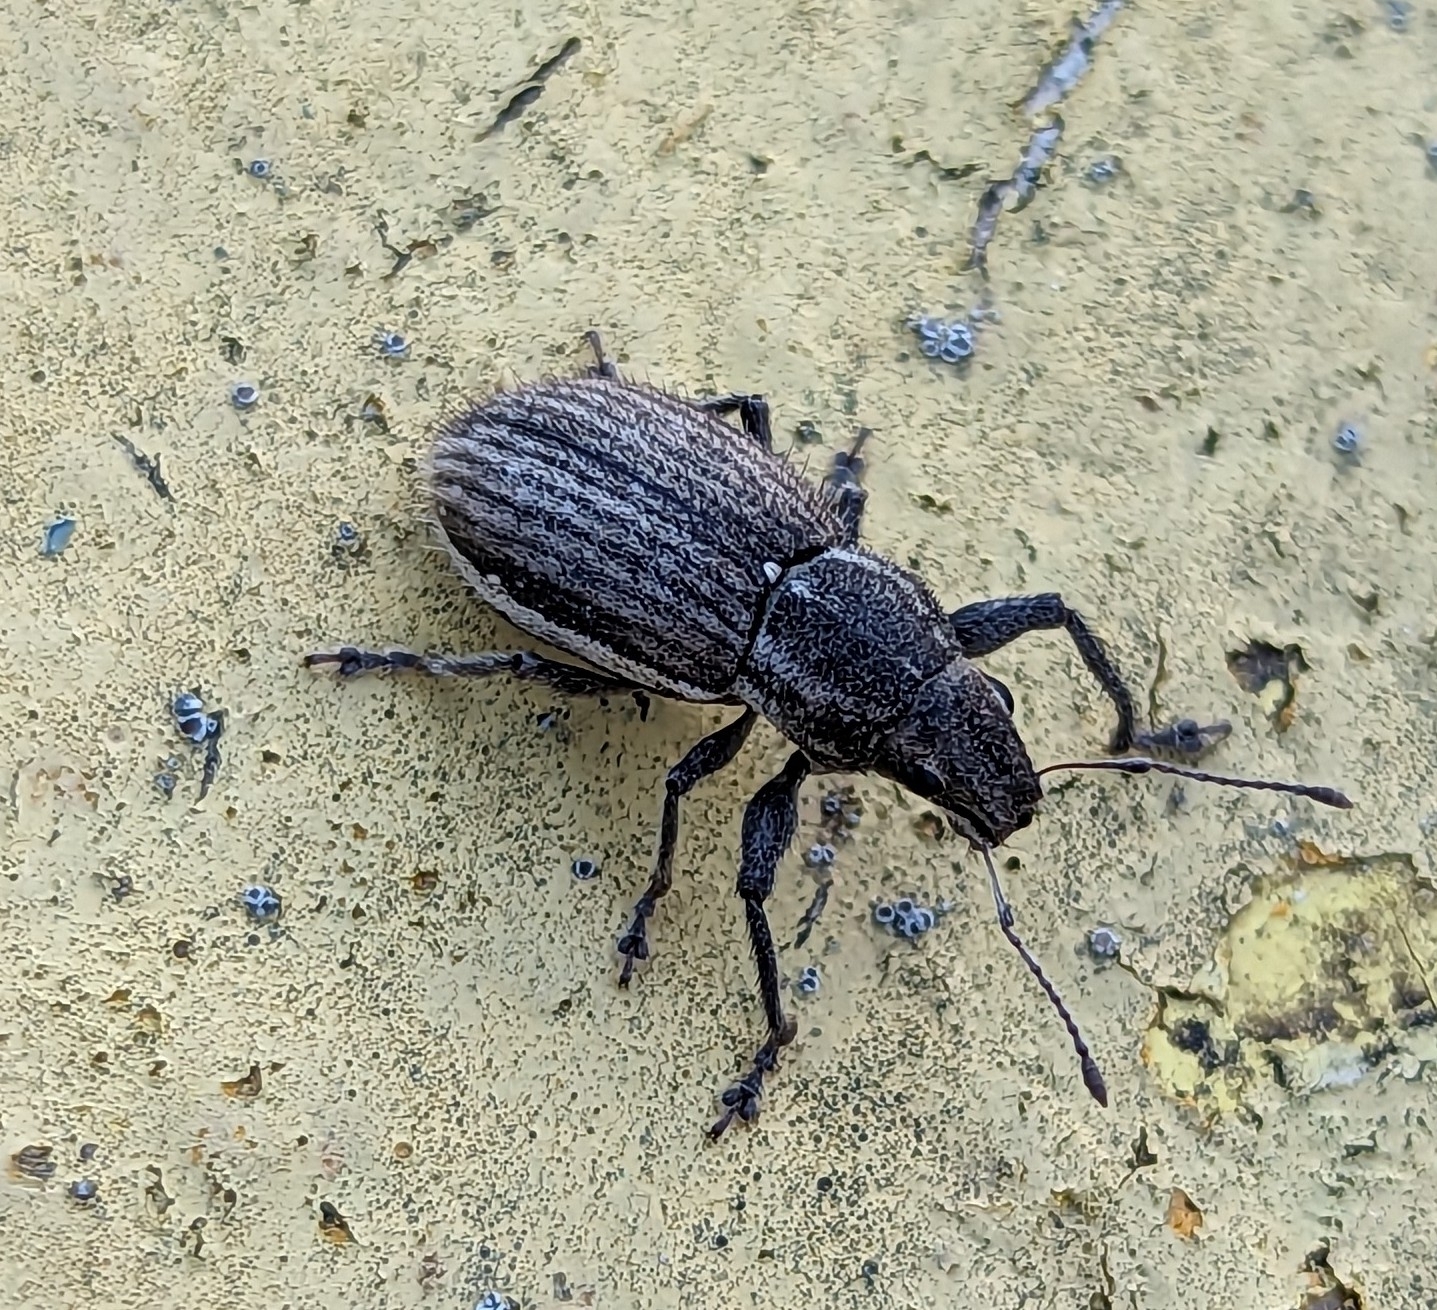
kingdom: Animalia
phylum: Arthropoda
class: Insecta
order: Coleoptera
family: Curculionidae
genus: Naupactus
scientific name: Naupactus leucoloma
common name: Whitefringed beetle
